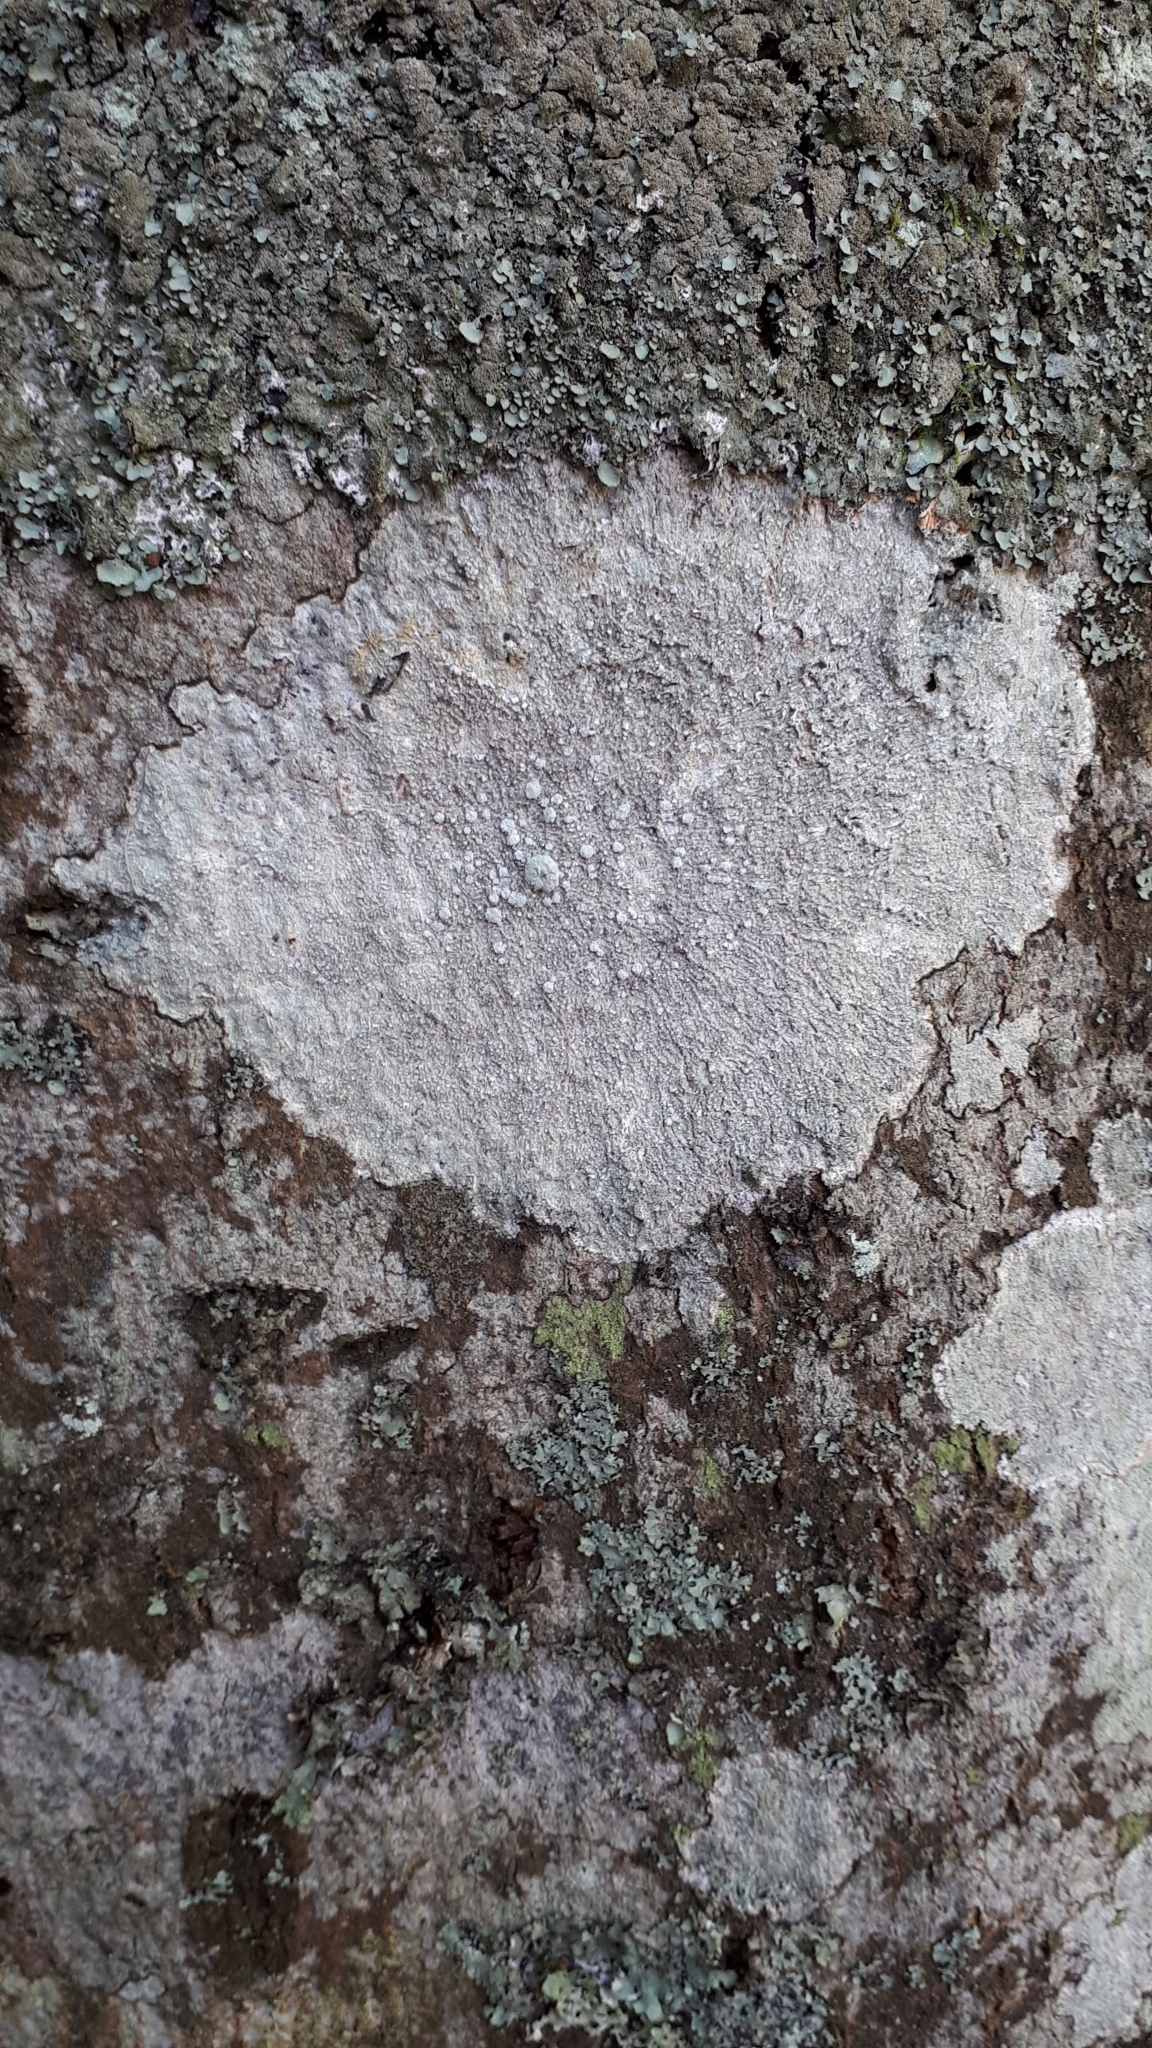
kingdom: Fungi
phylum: Ascomycota
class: Lecanoromycetes
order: Pertusariales
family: Pertusariaceae
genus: Lepra
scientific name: Lepra amara
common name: Bitter wart lichen
